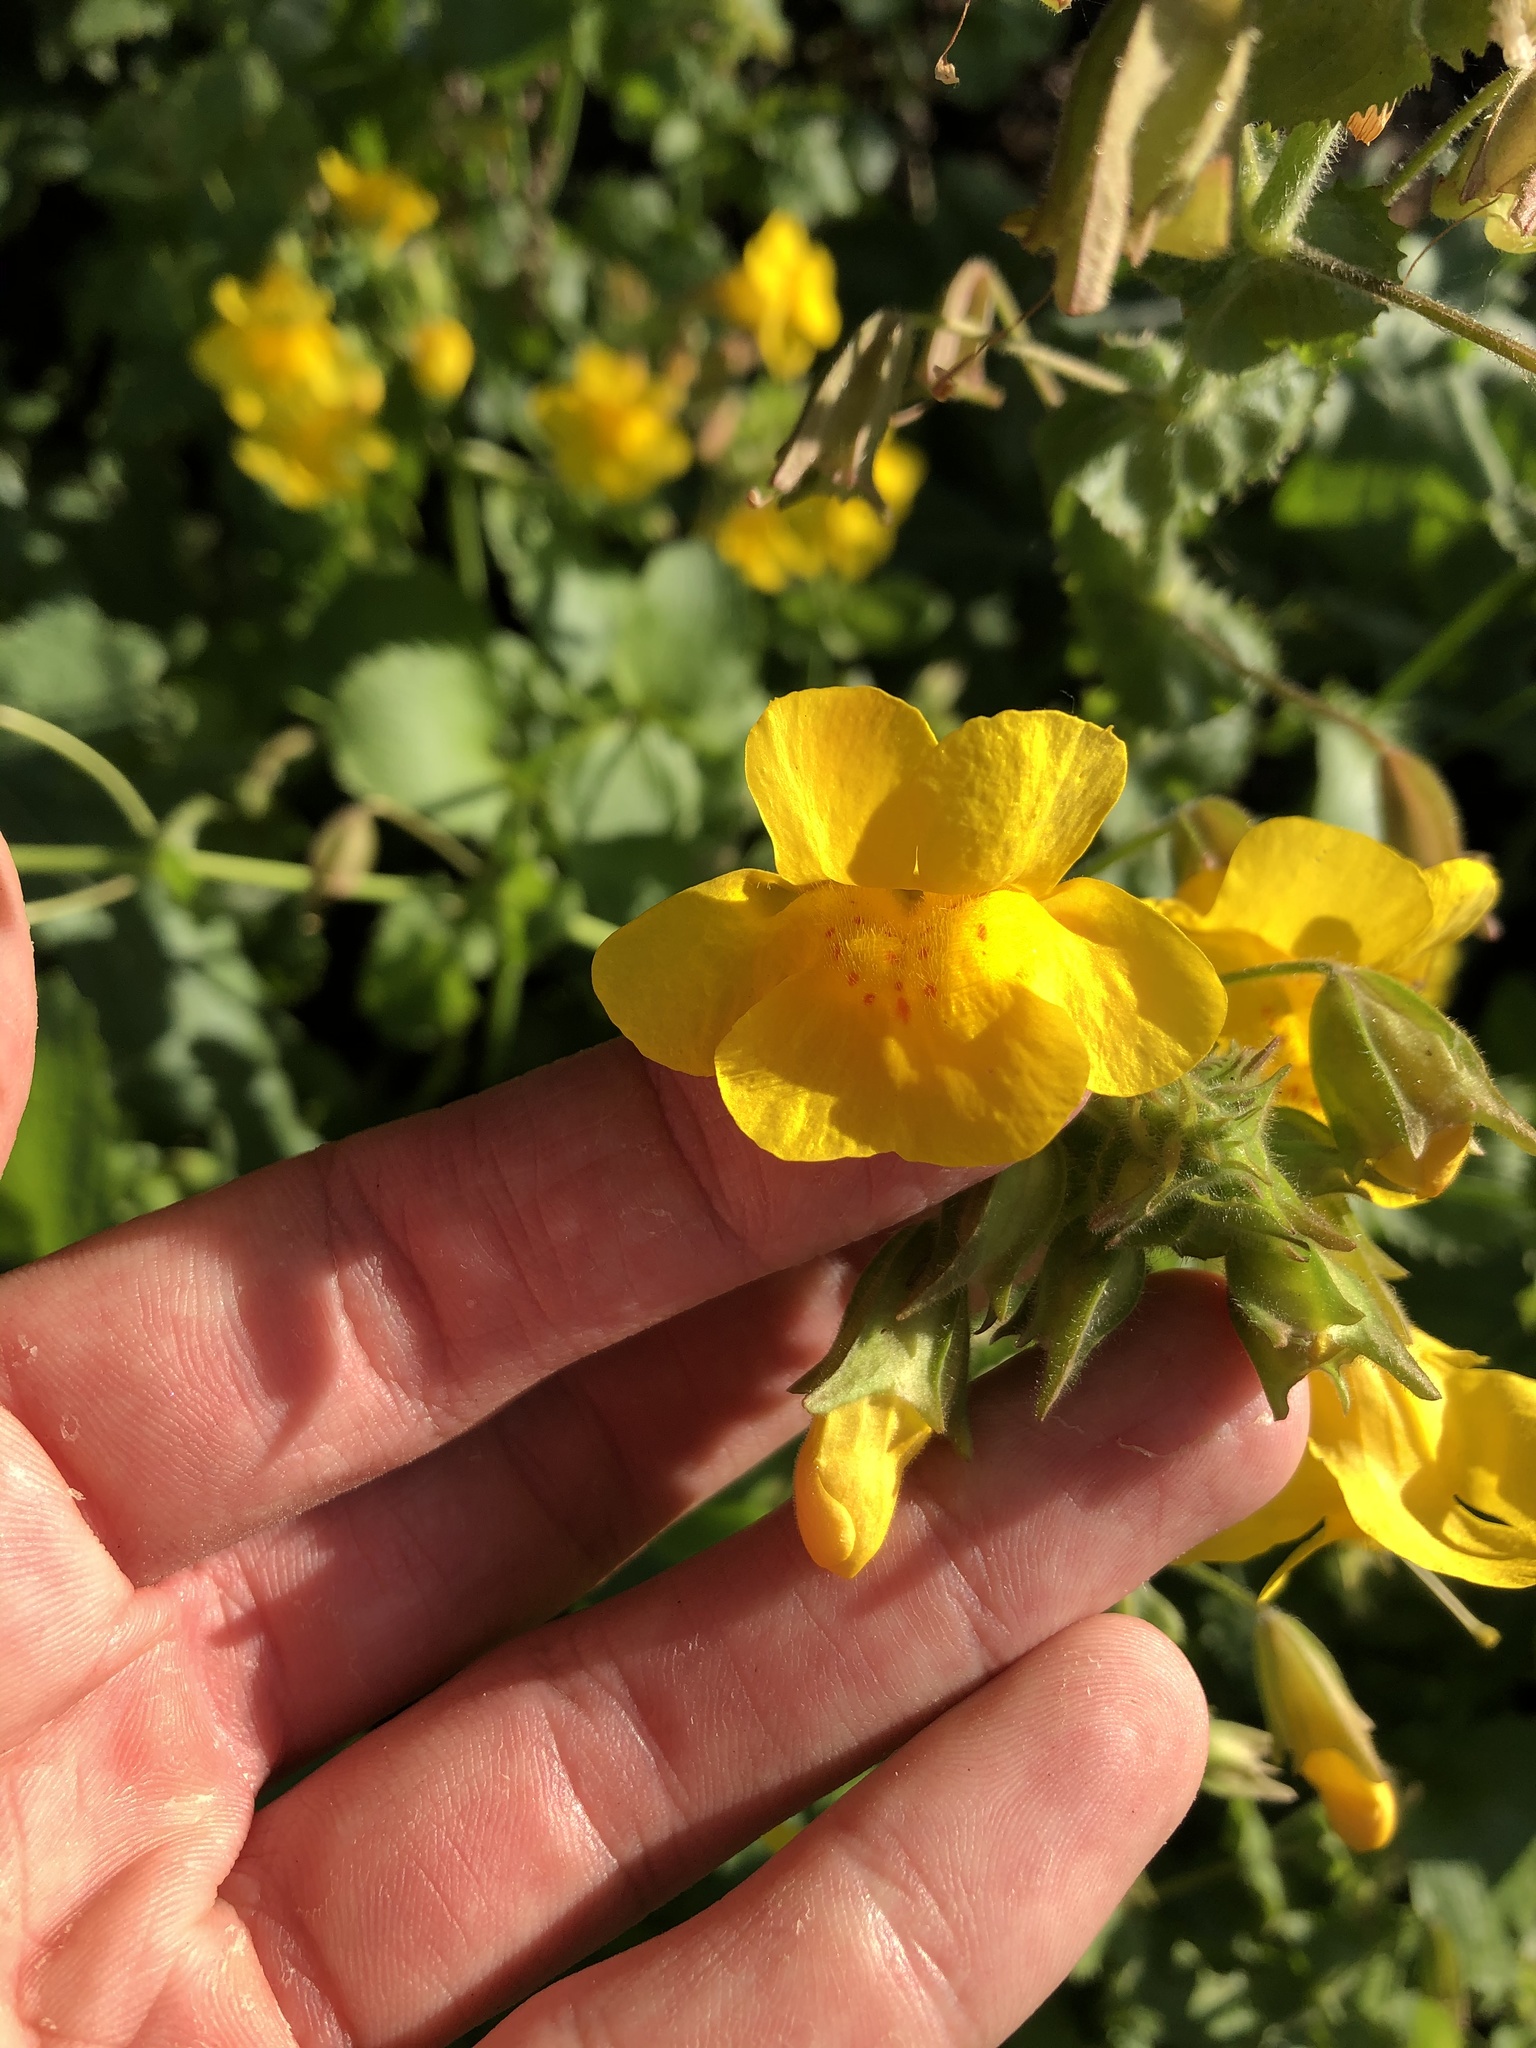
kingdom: Plantae
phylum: Tracheophyta
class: Magnoliopsida
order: Lamiales
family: Phrymaceae
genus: Erythranthe
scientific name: Erythranthe guttata
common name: Monkeyflower
